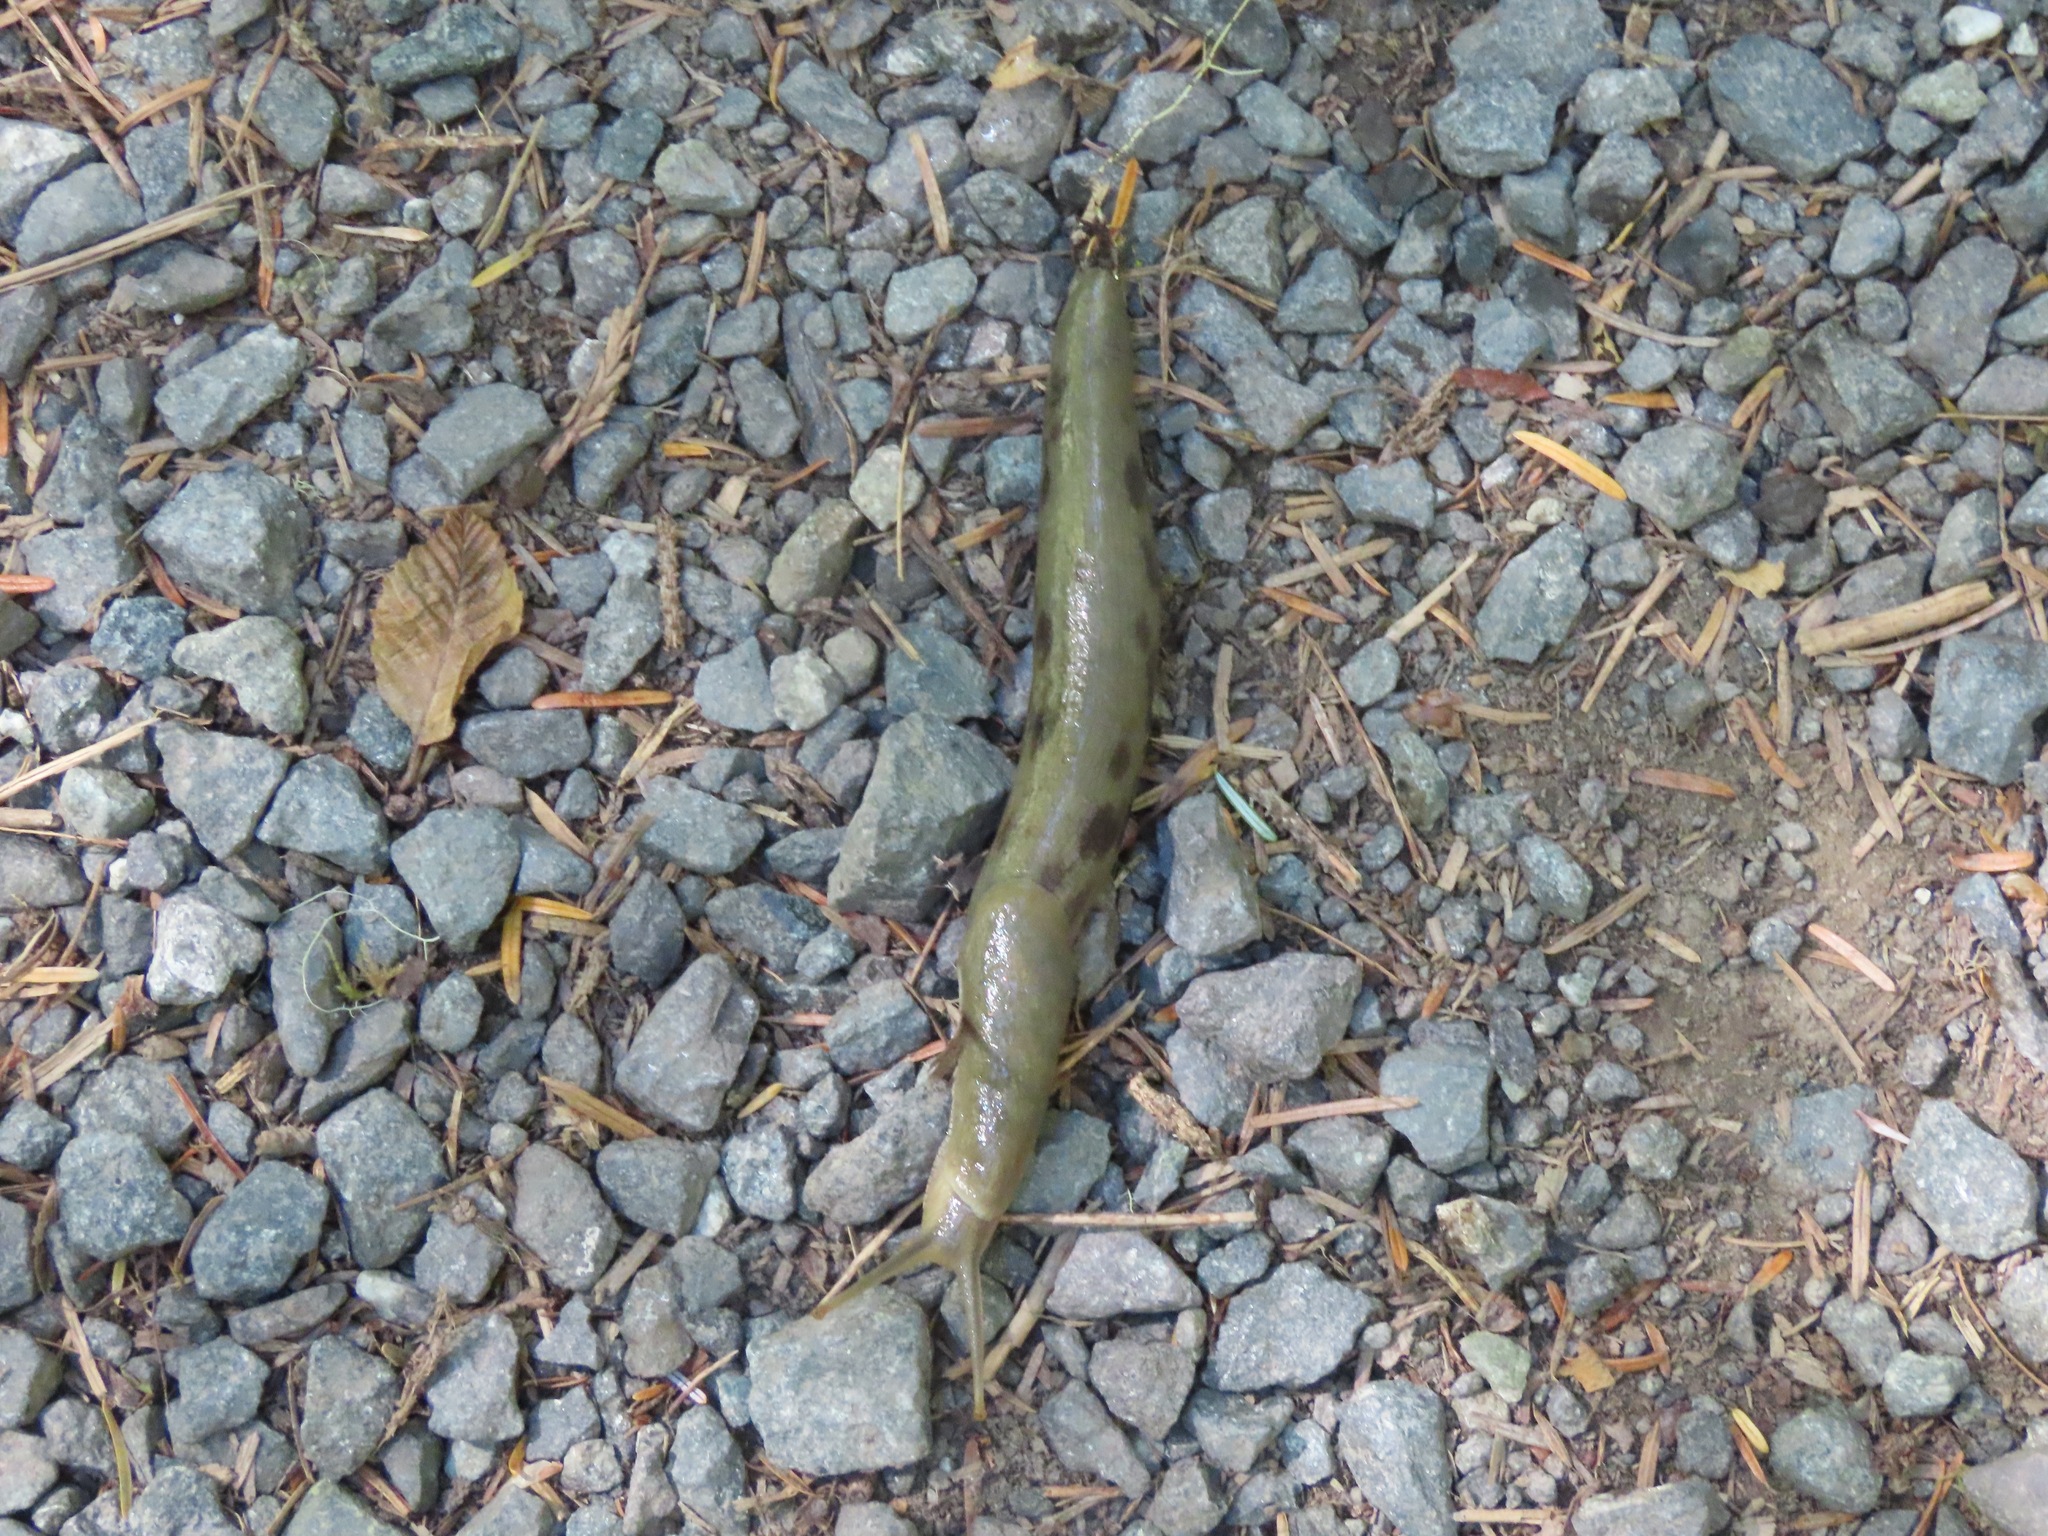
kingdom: Animalia
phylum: Mollusca
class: Gastropoda
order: Stylommatophora
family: Ariolimacidae
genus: Ariolimax
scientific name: Ariolimax columbianus
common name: Pacific banana slug
